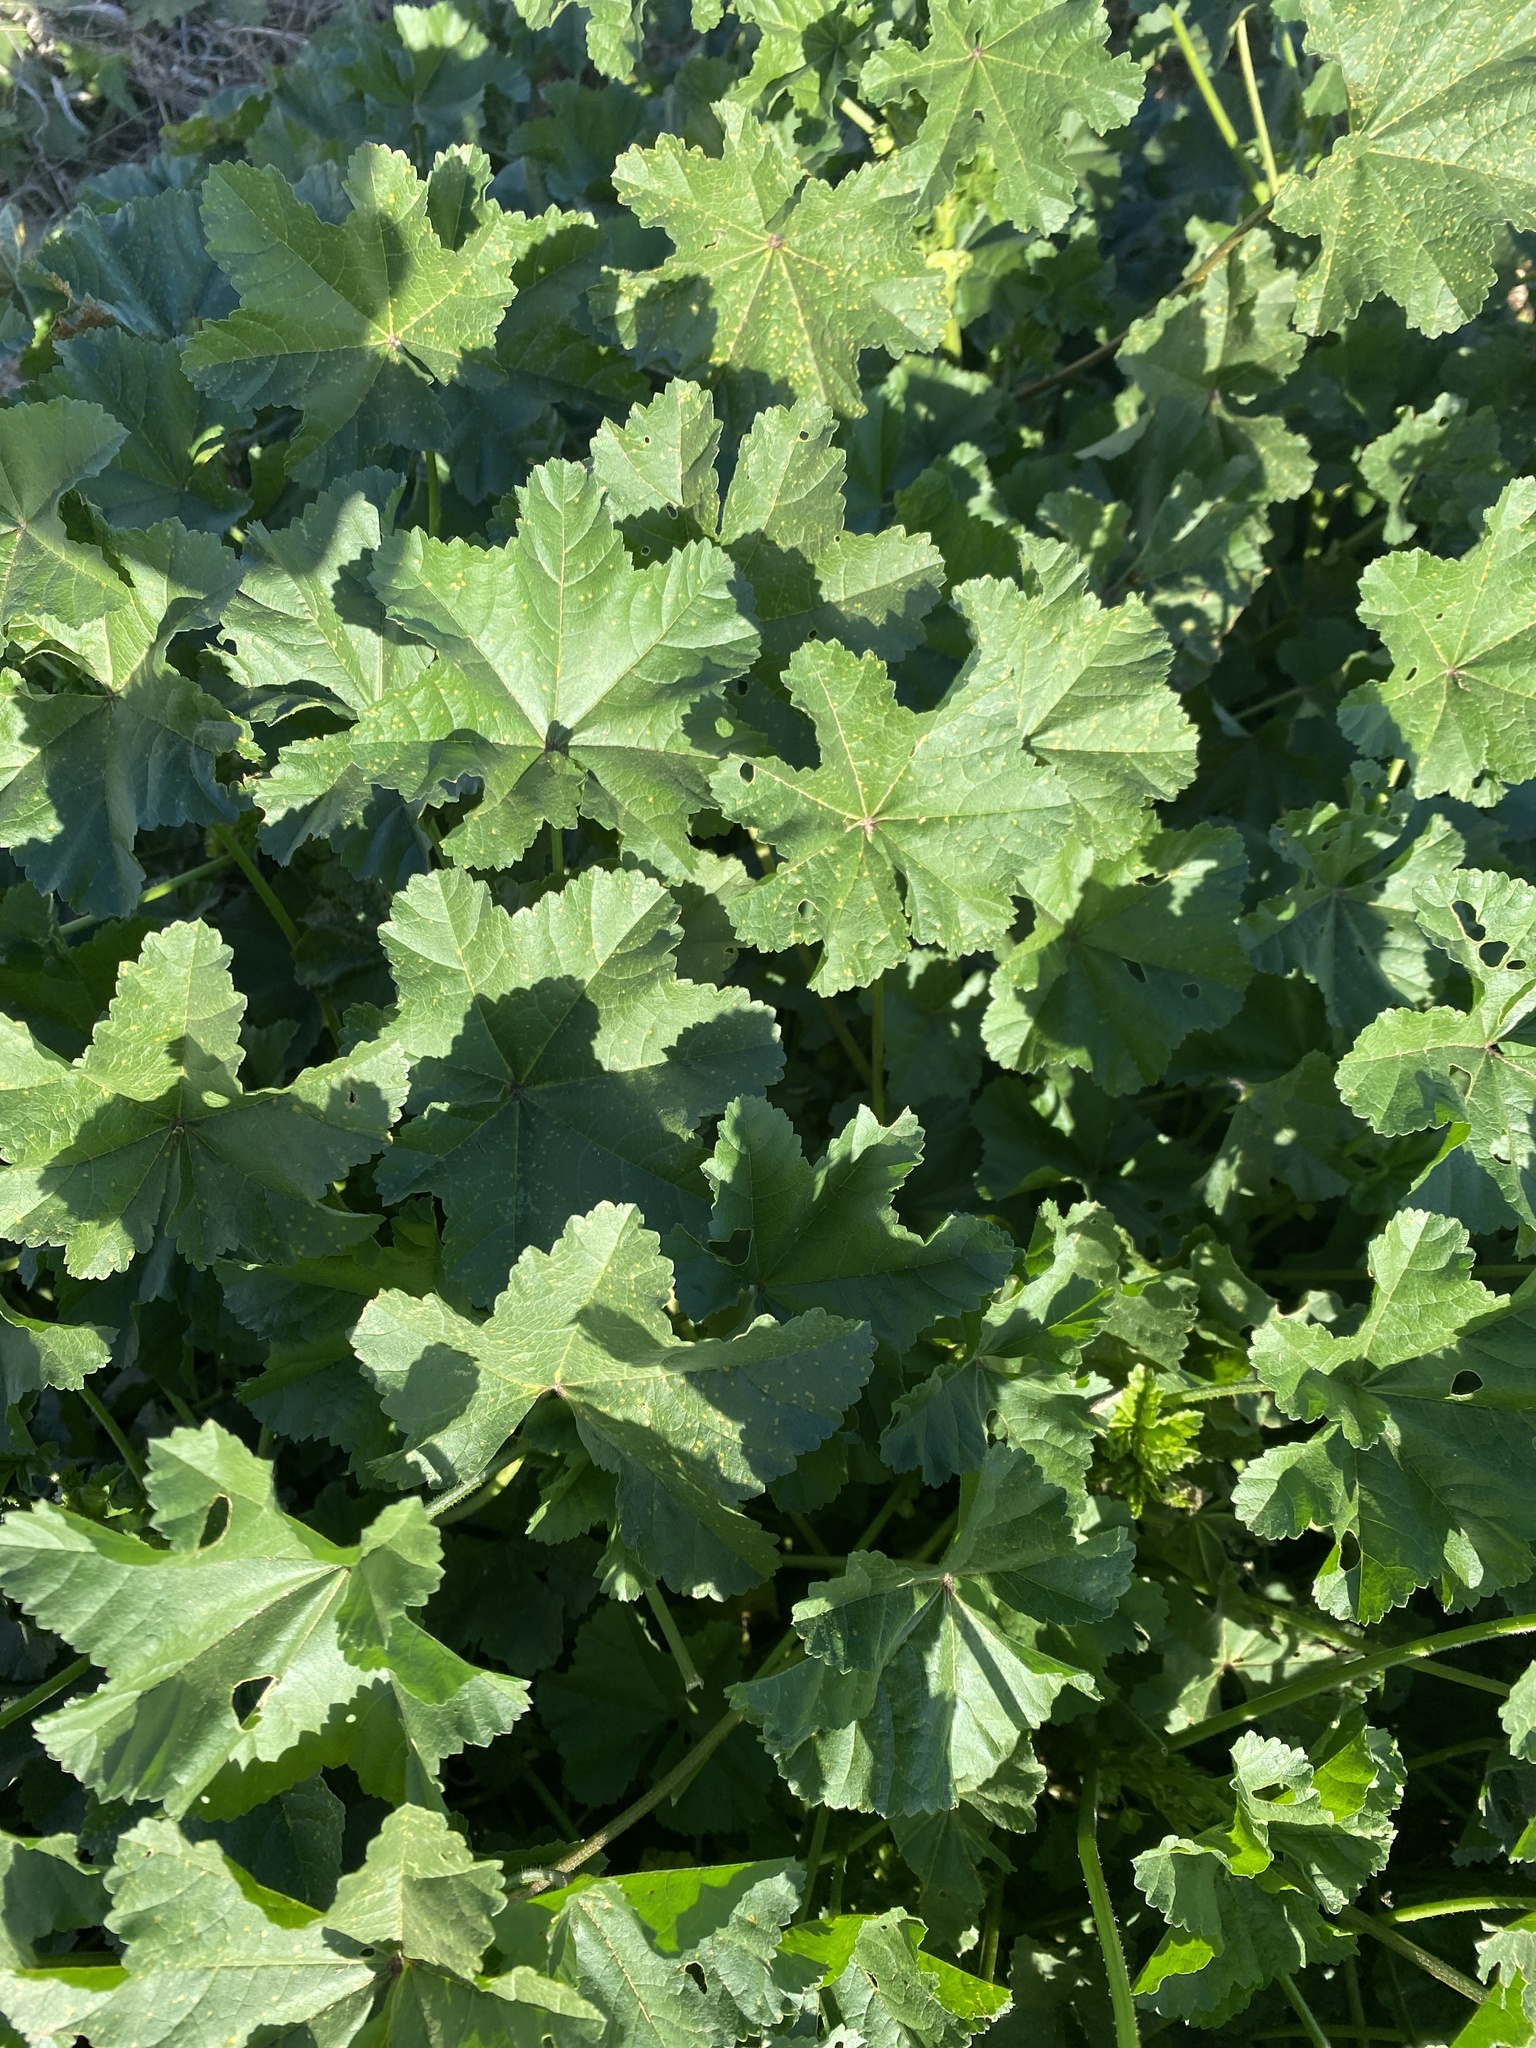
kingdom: Plantae
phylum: Tracheophyta
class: Magnoliopsida
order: Malvales
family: Malvaceae
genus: Malva
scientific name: Malva parviflora
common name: Least mallow
